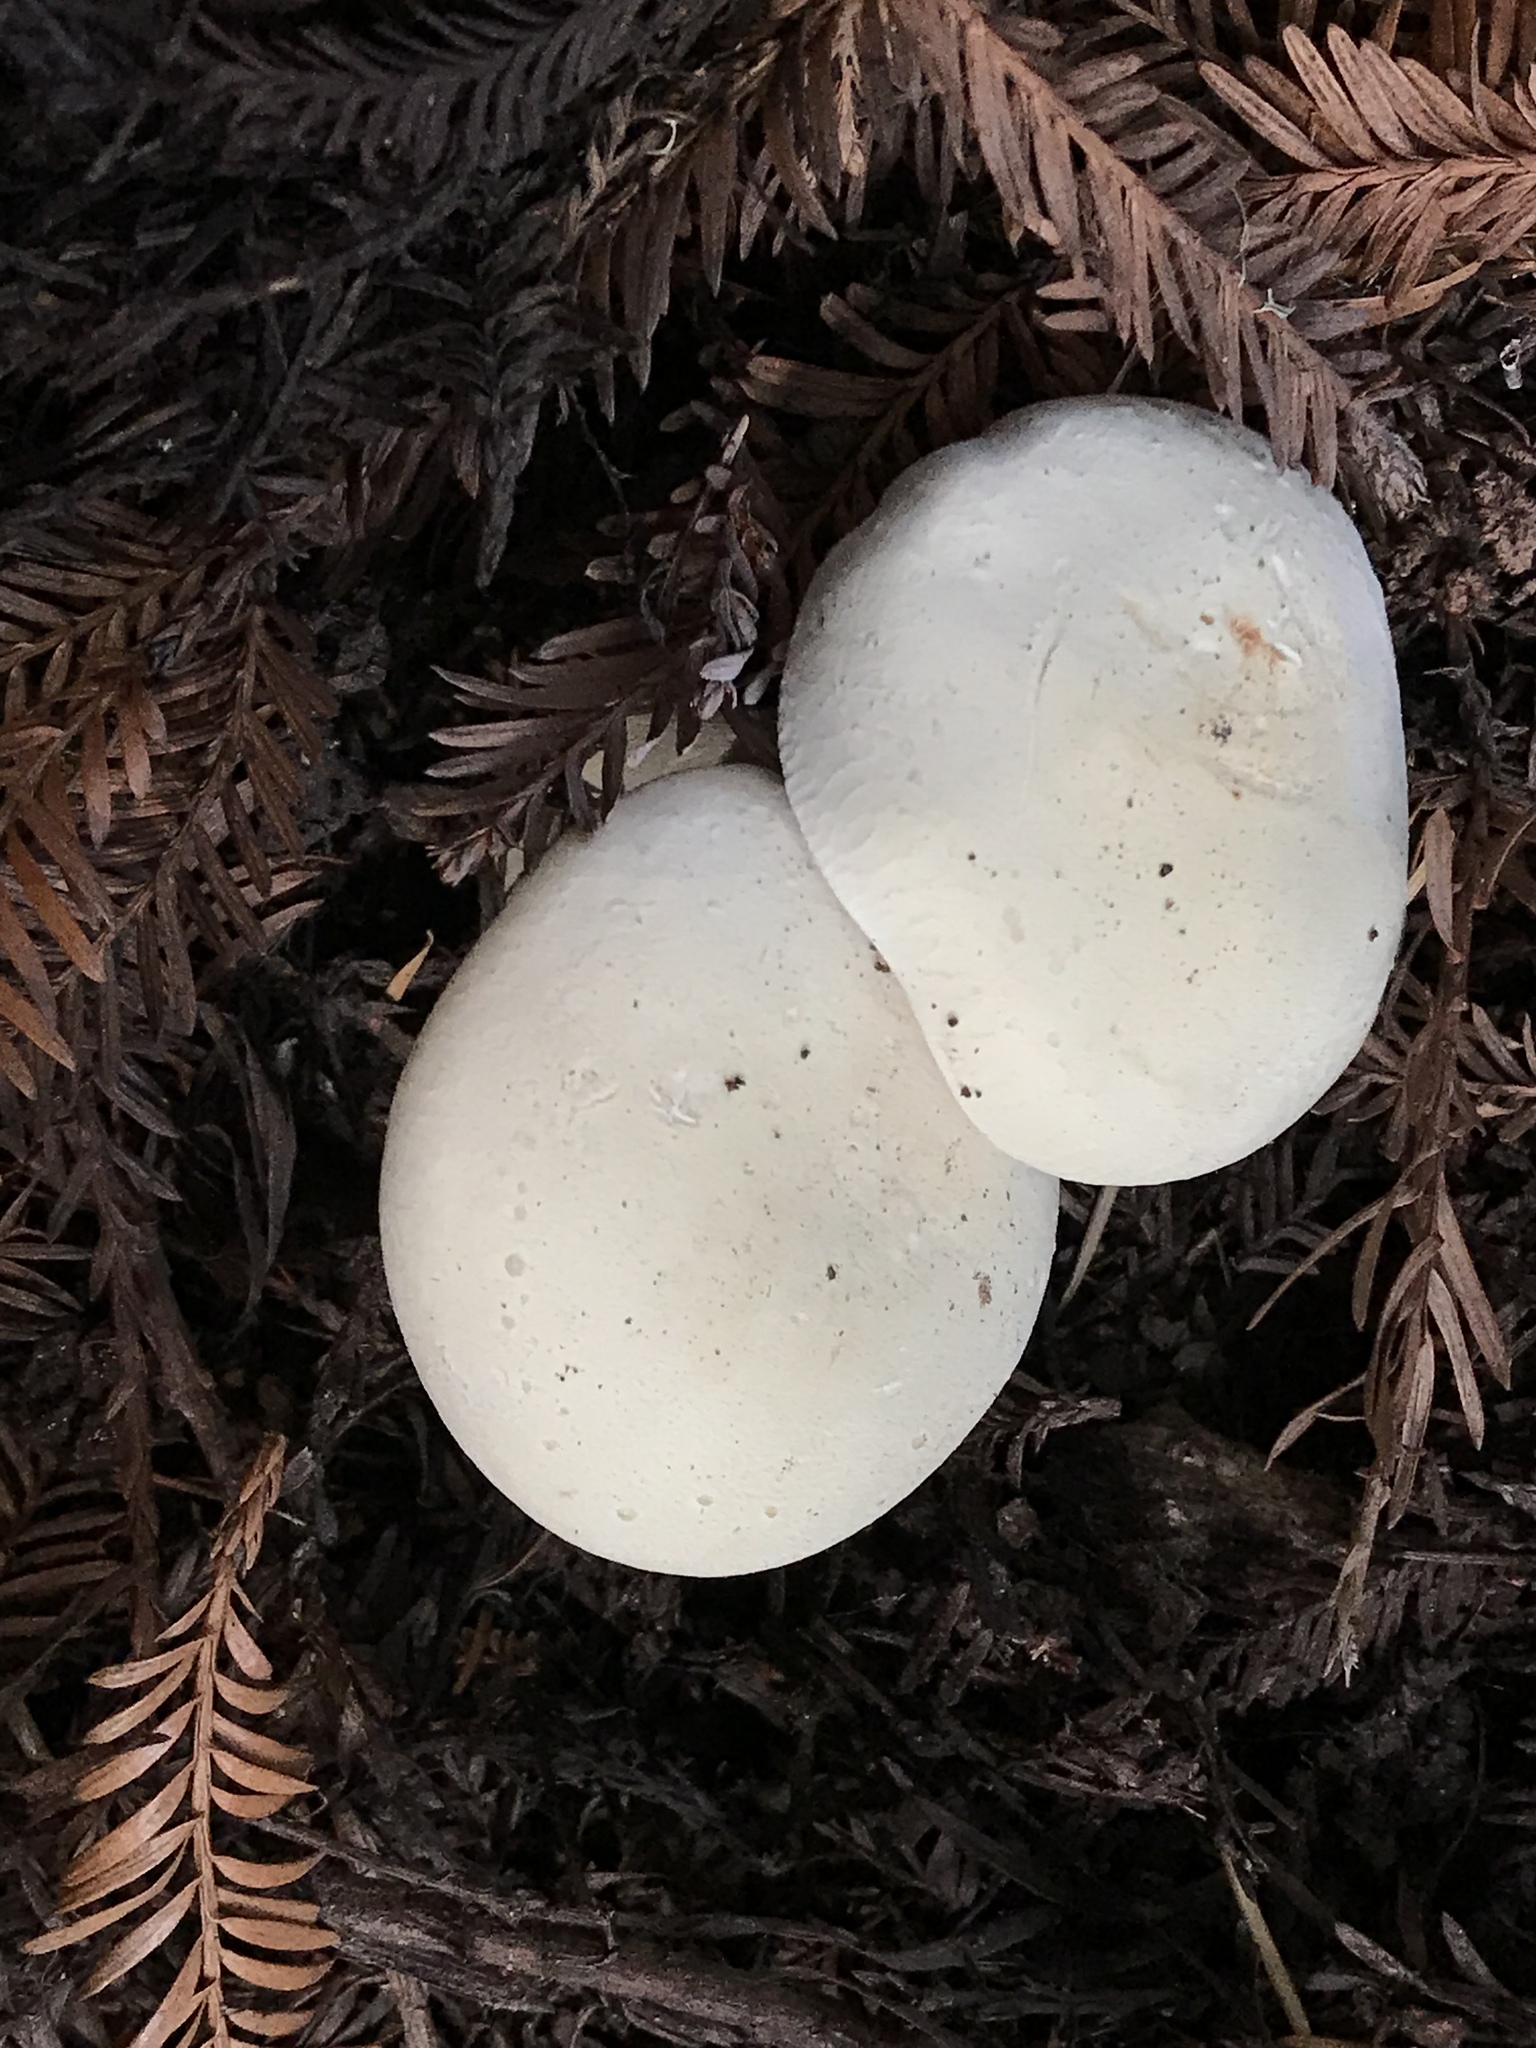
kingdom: Fungi
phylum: Basidiomycota
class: Agaricomycetes
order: Agaricales
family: Tricholomataceae
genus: Leucopaxillus
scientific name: Leucopaxillus albissimus
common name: Large white leucopax
